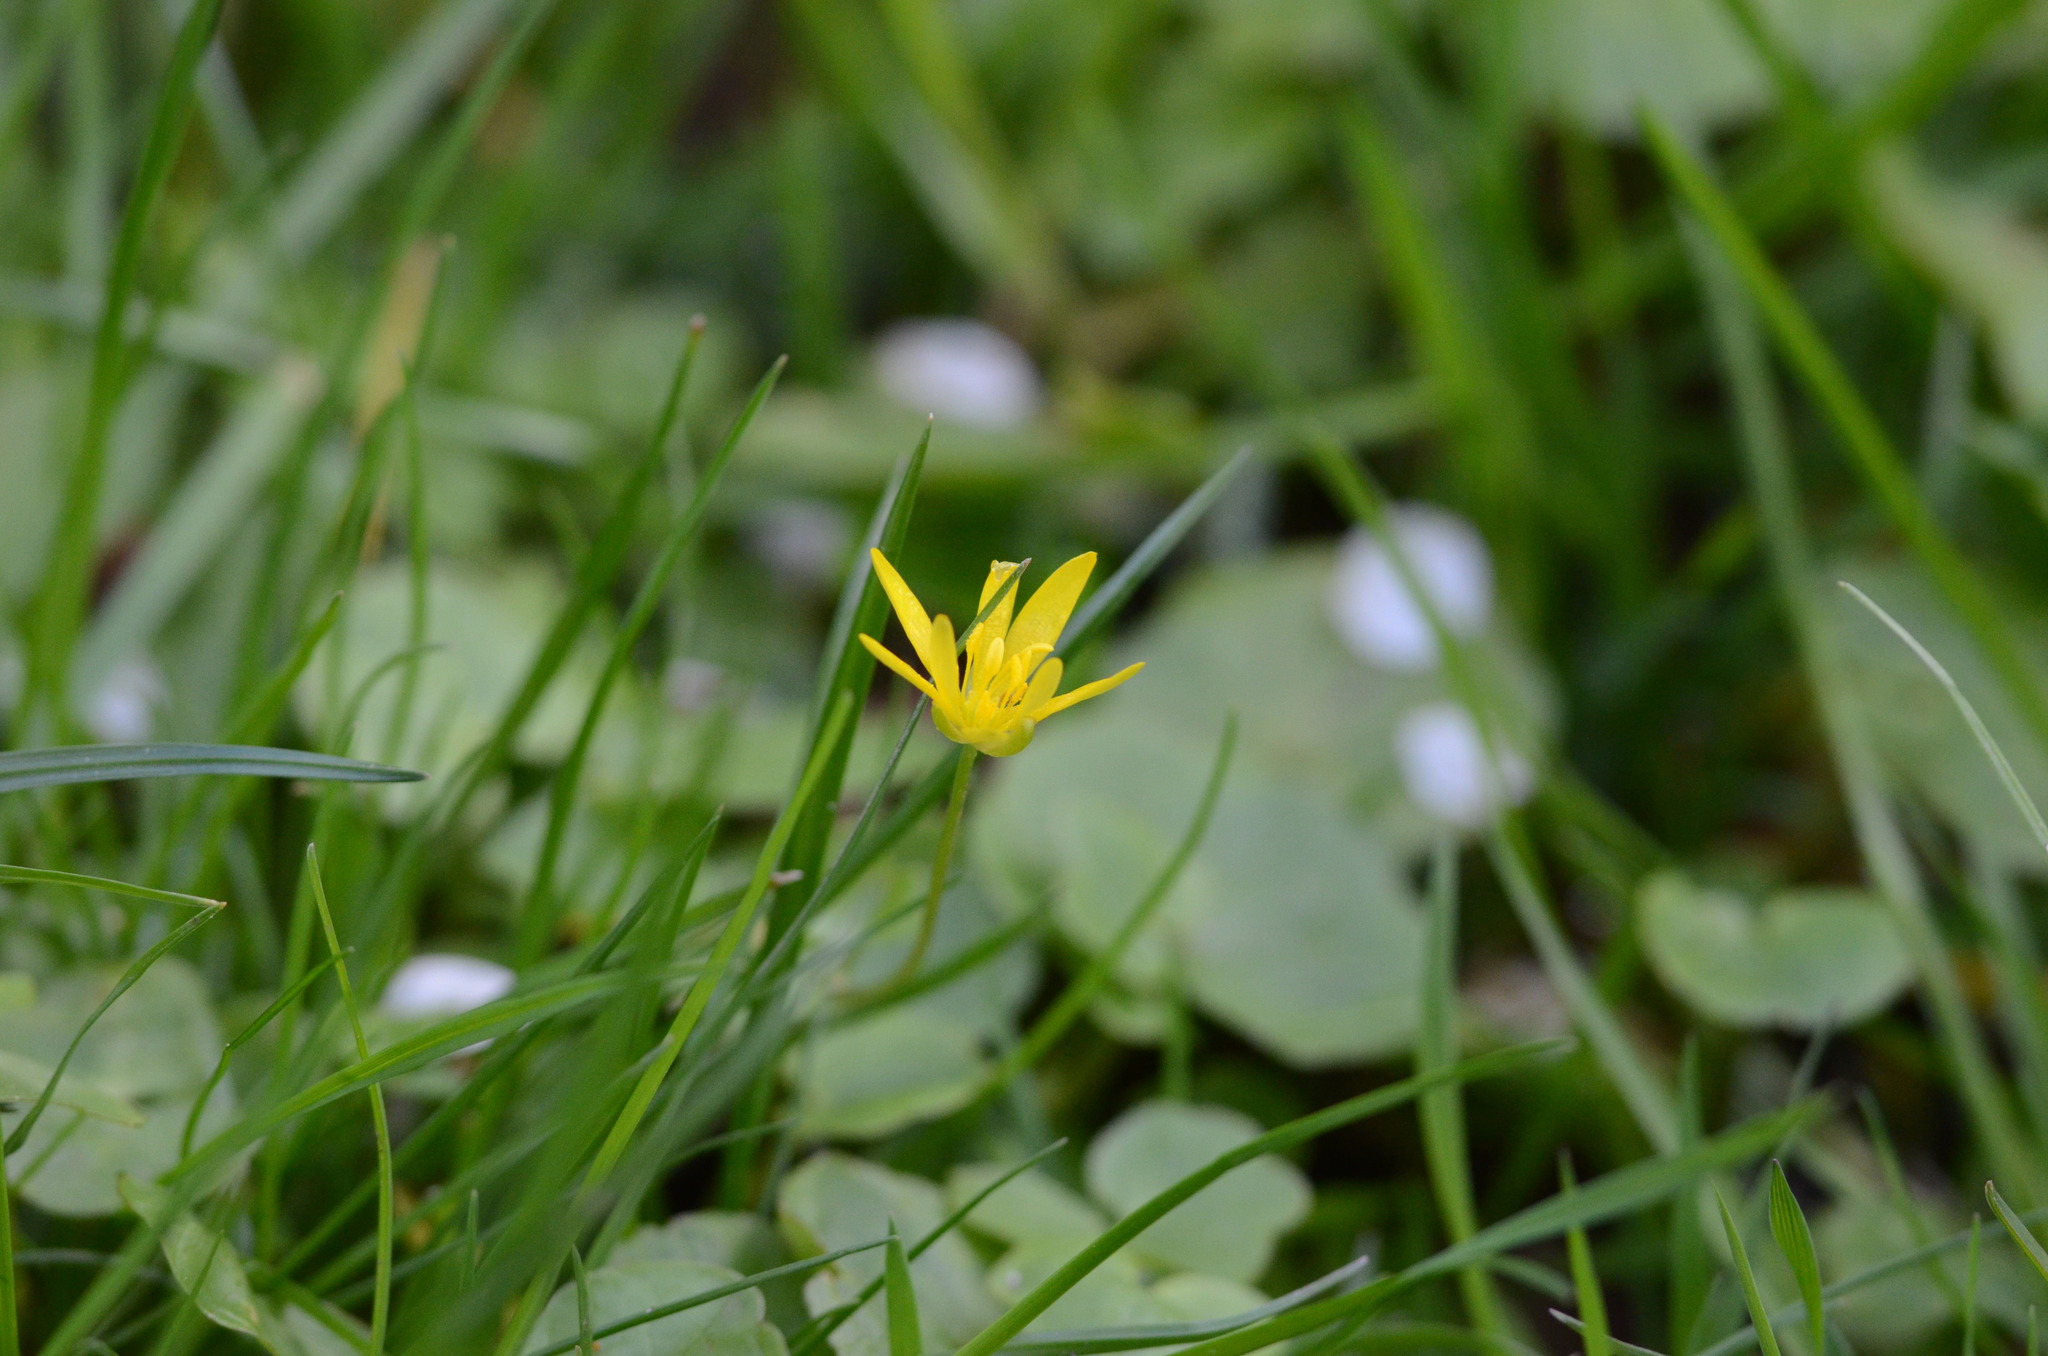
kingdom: Plantae
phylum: Tracheophyta
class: Magnoliopsida
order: Ranunculales
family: Ranunculaceae
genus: Ficaria
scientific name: Ficaria verna
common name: Lesser celandine
